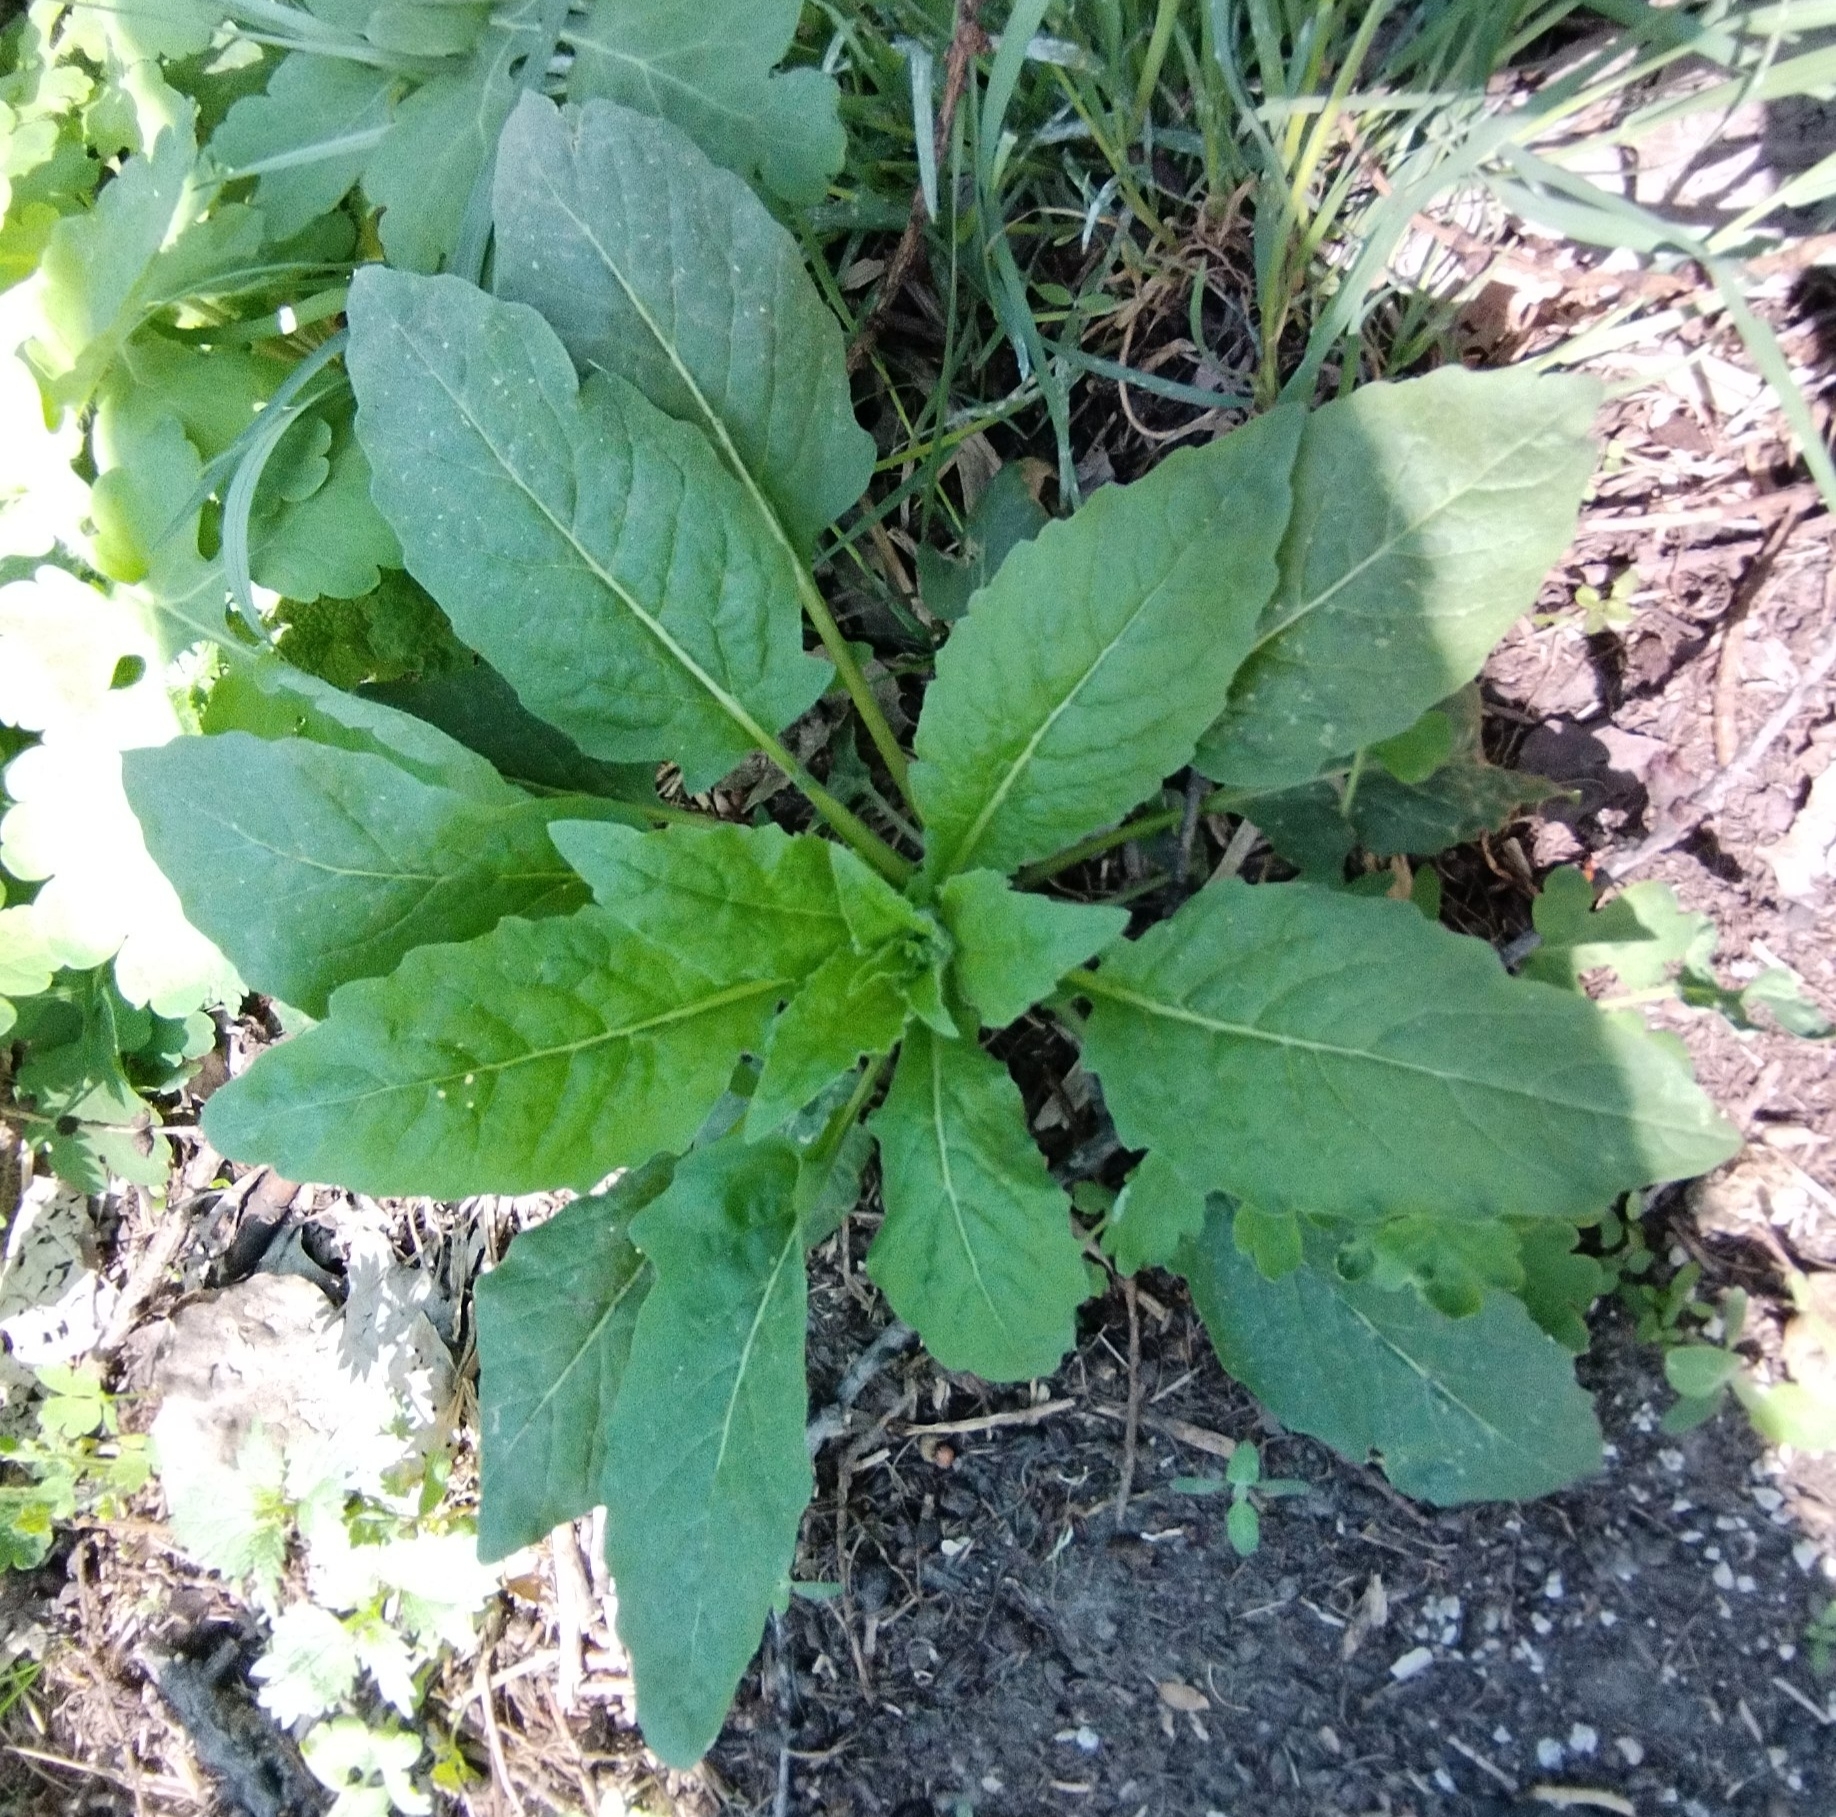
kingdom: Plantae
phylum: Tracheophyta
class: Magnoliopsida
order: Brassicales
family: Brassicaceae
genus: Catolobus
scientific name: Catolobus pendulus
